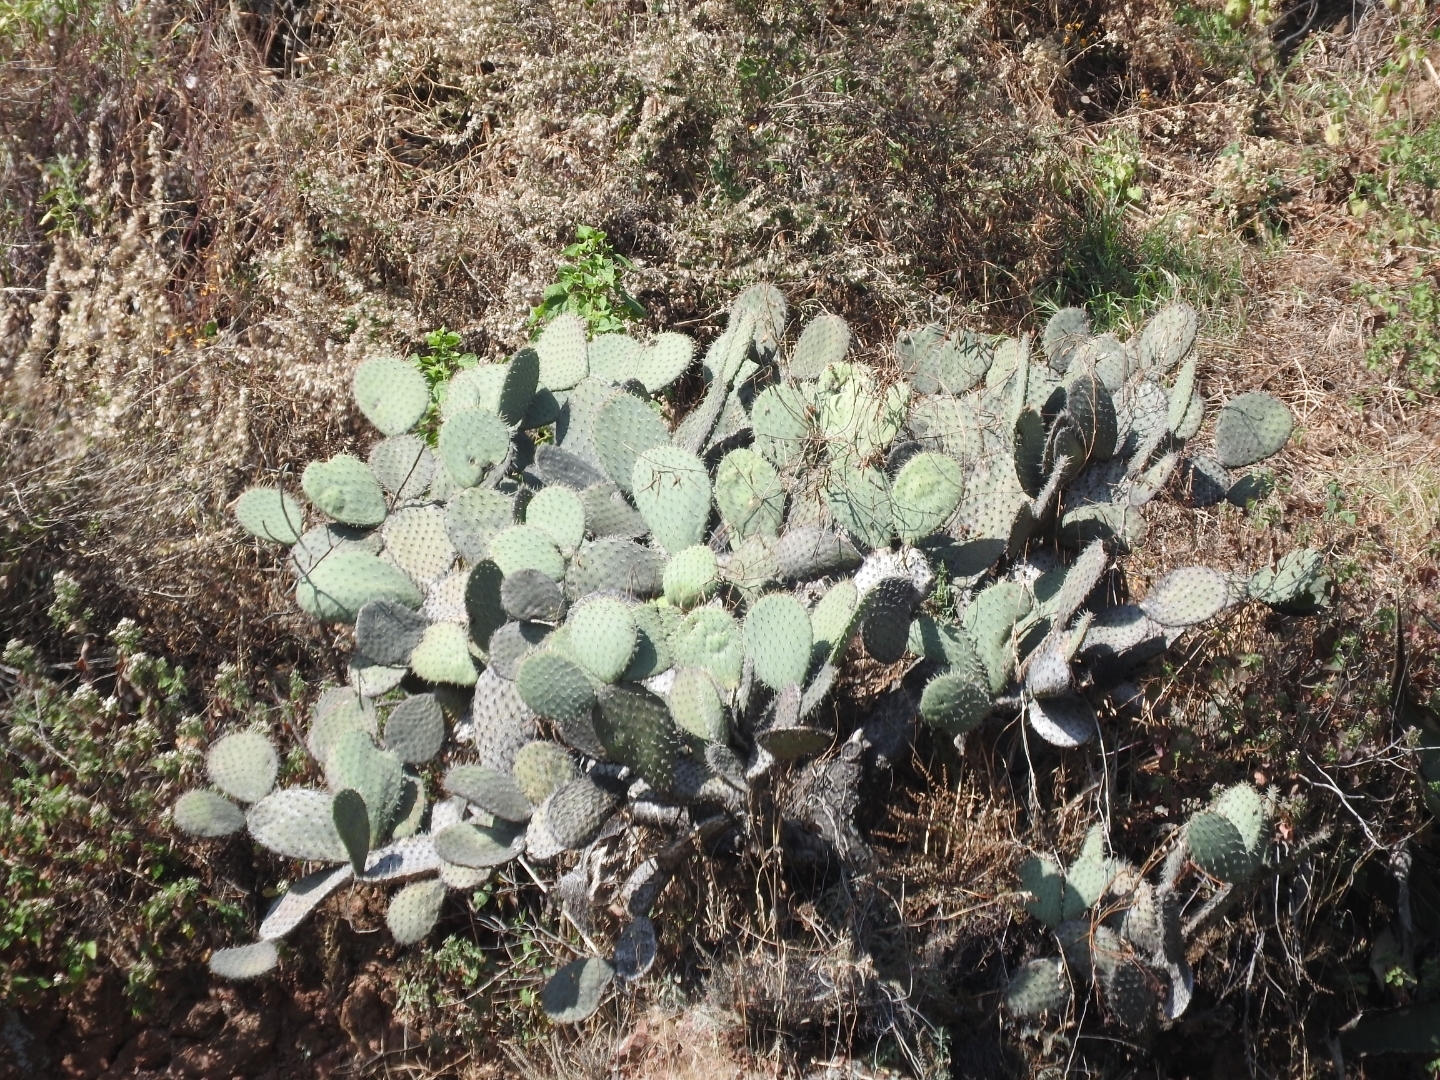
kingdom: Plantae
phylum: Tracheophyta
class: Magnoliopsida
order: Caryophyllales
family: Cactaceae
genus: Opuntia
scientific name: Opuntia lasiacantha
